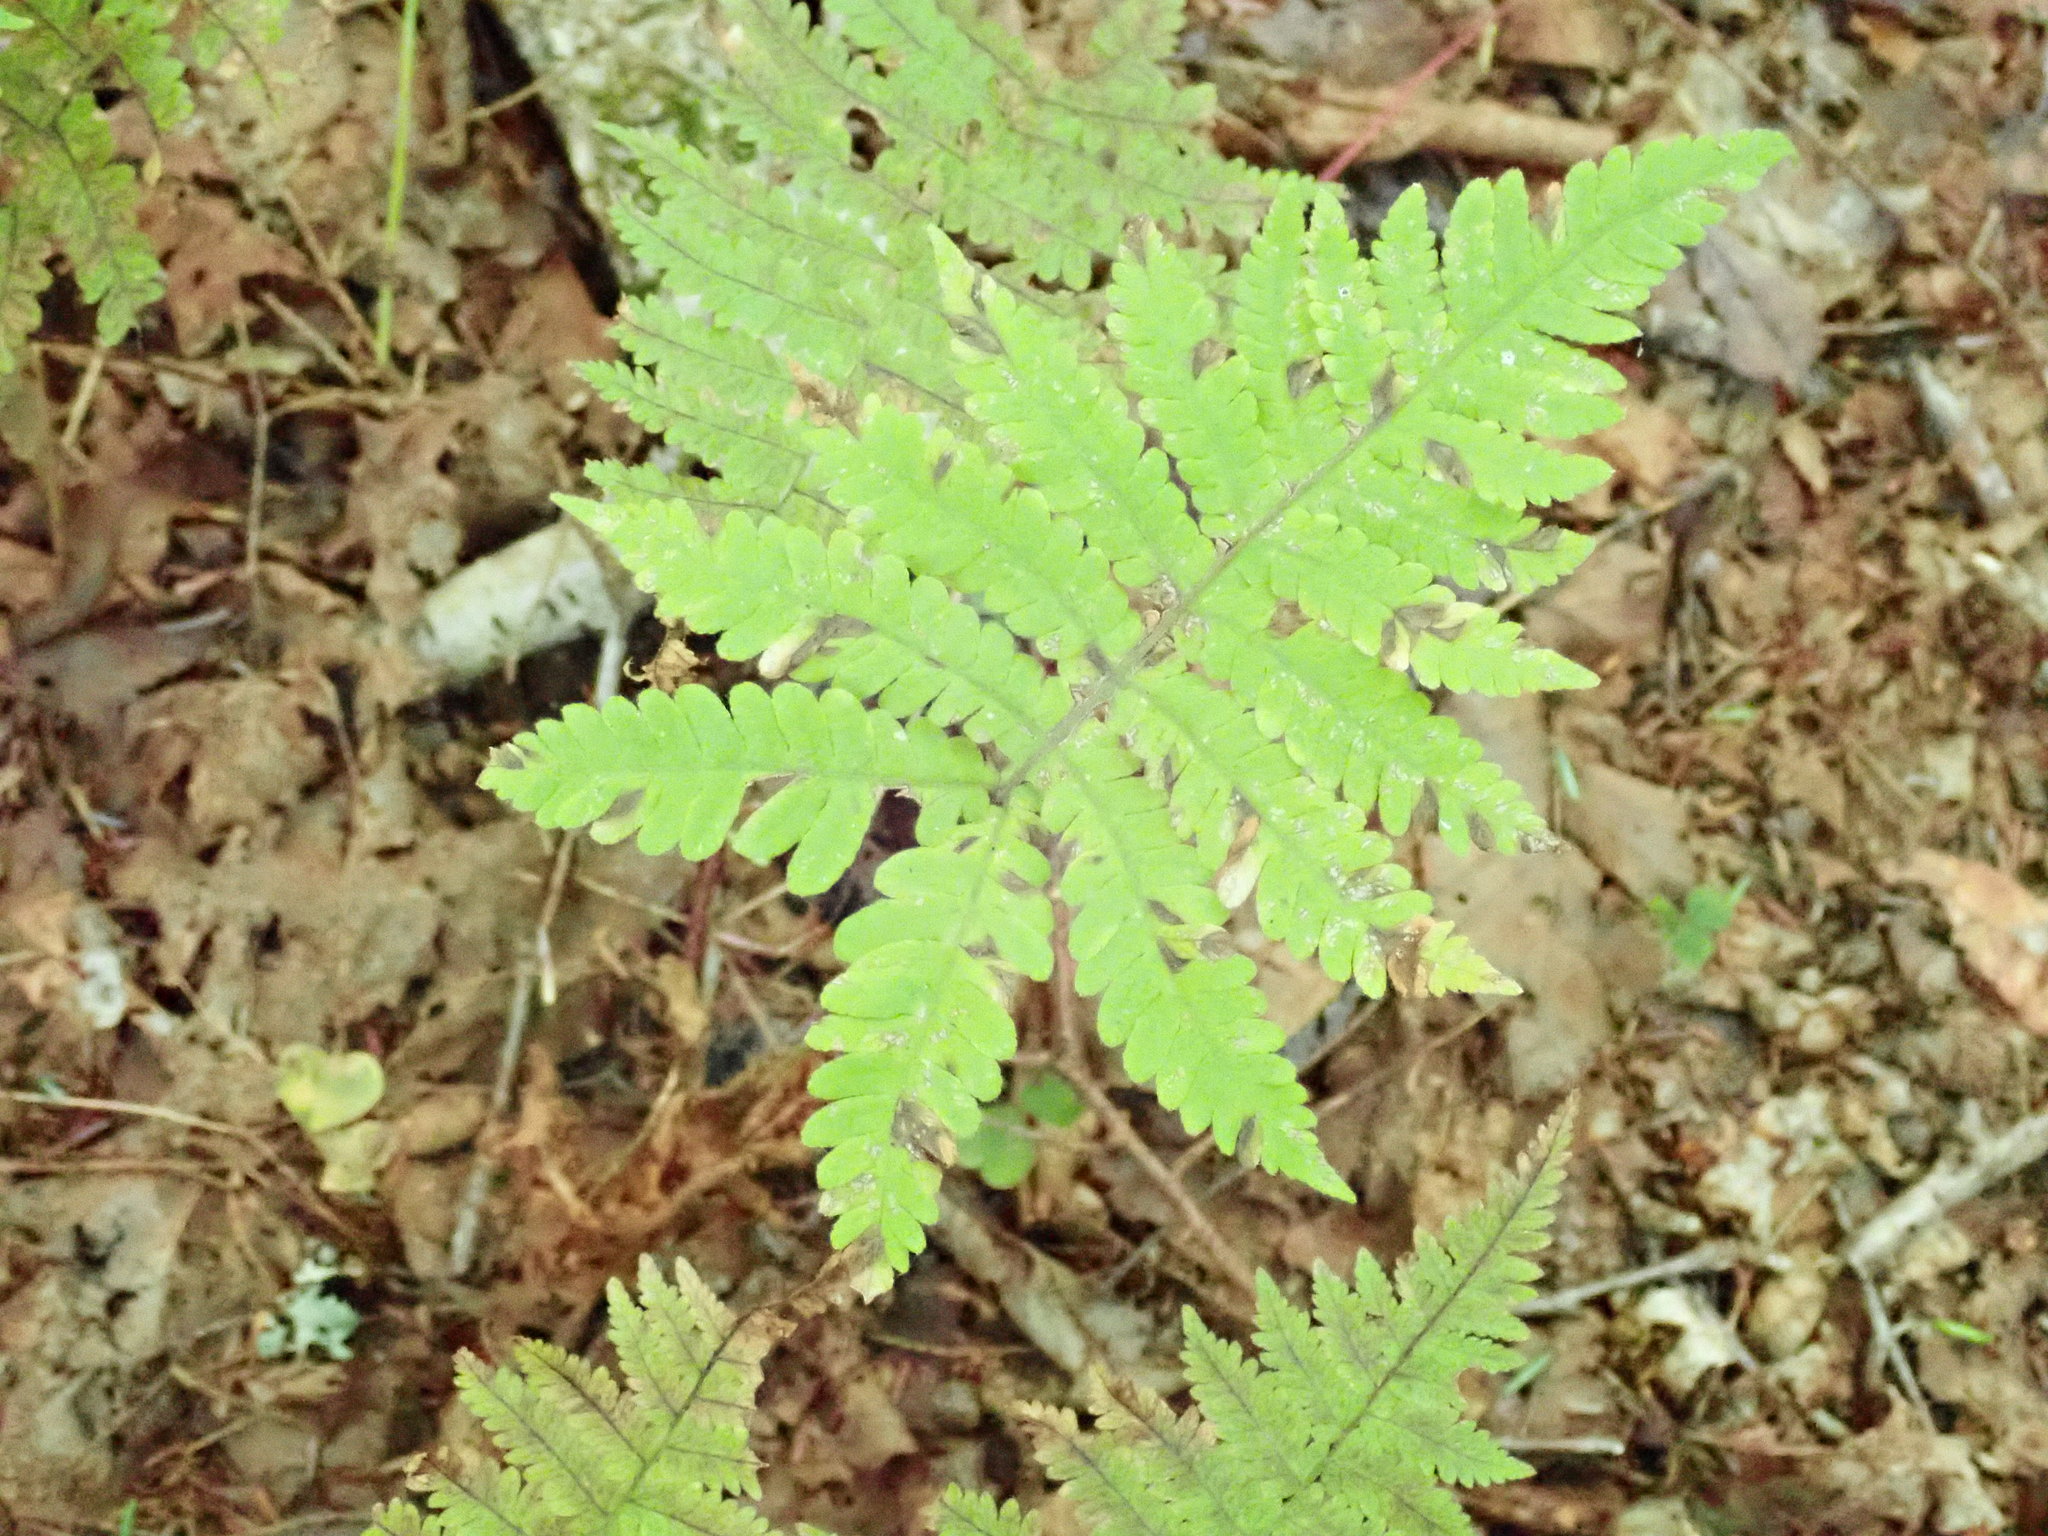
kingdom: Plantae
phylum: Tracheophyta
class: Polypodiopsida
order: Polypodiales
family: Thelypteridaceae
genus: Phegopteris
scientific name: Phegopteris connectilis
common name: Beech fern
